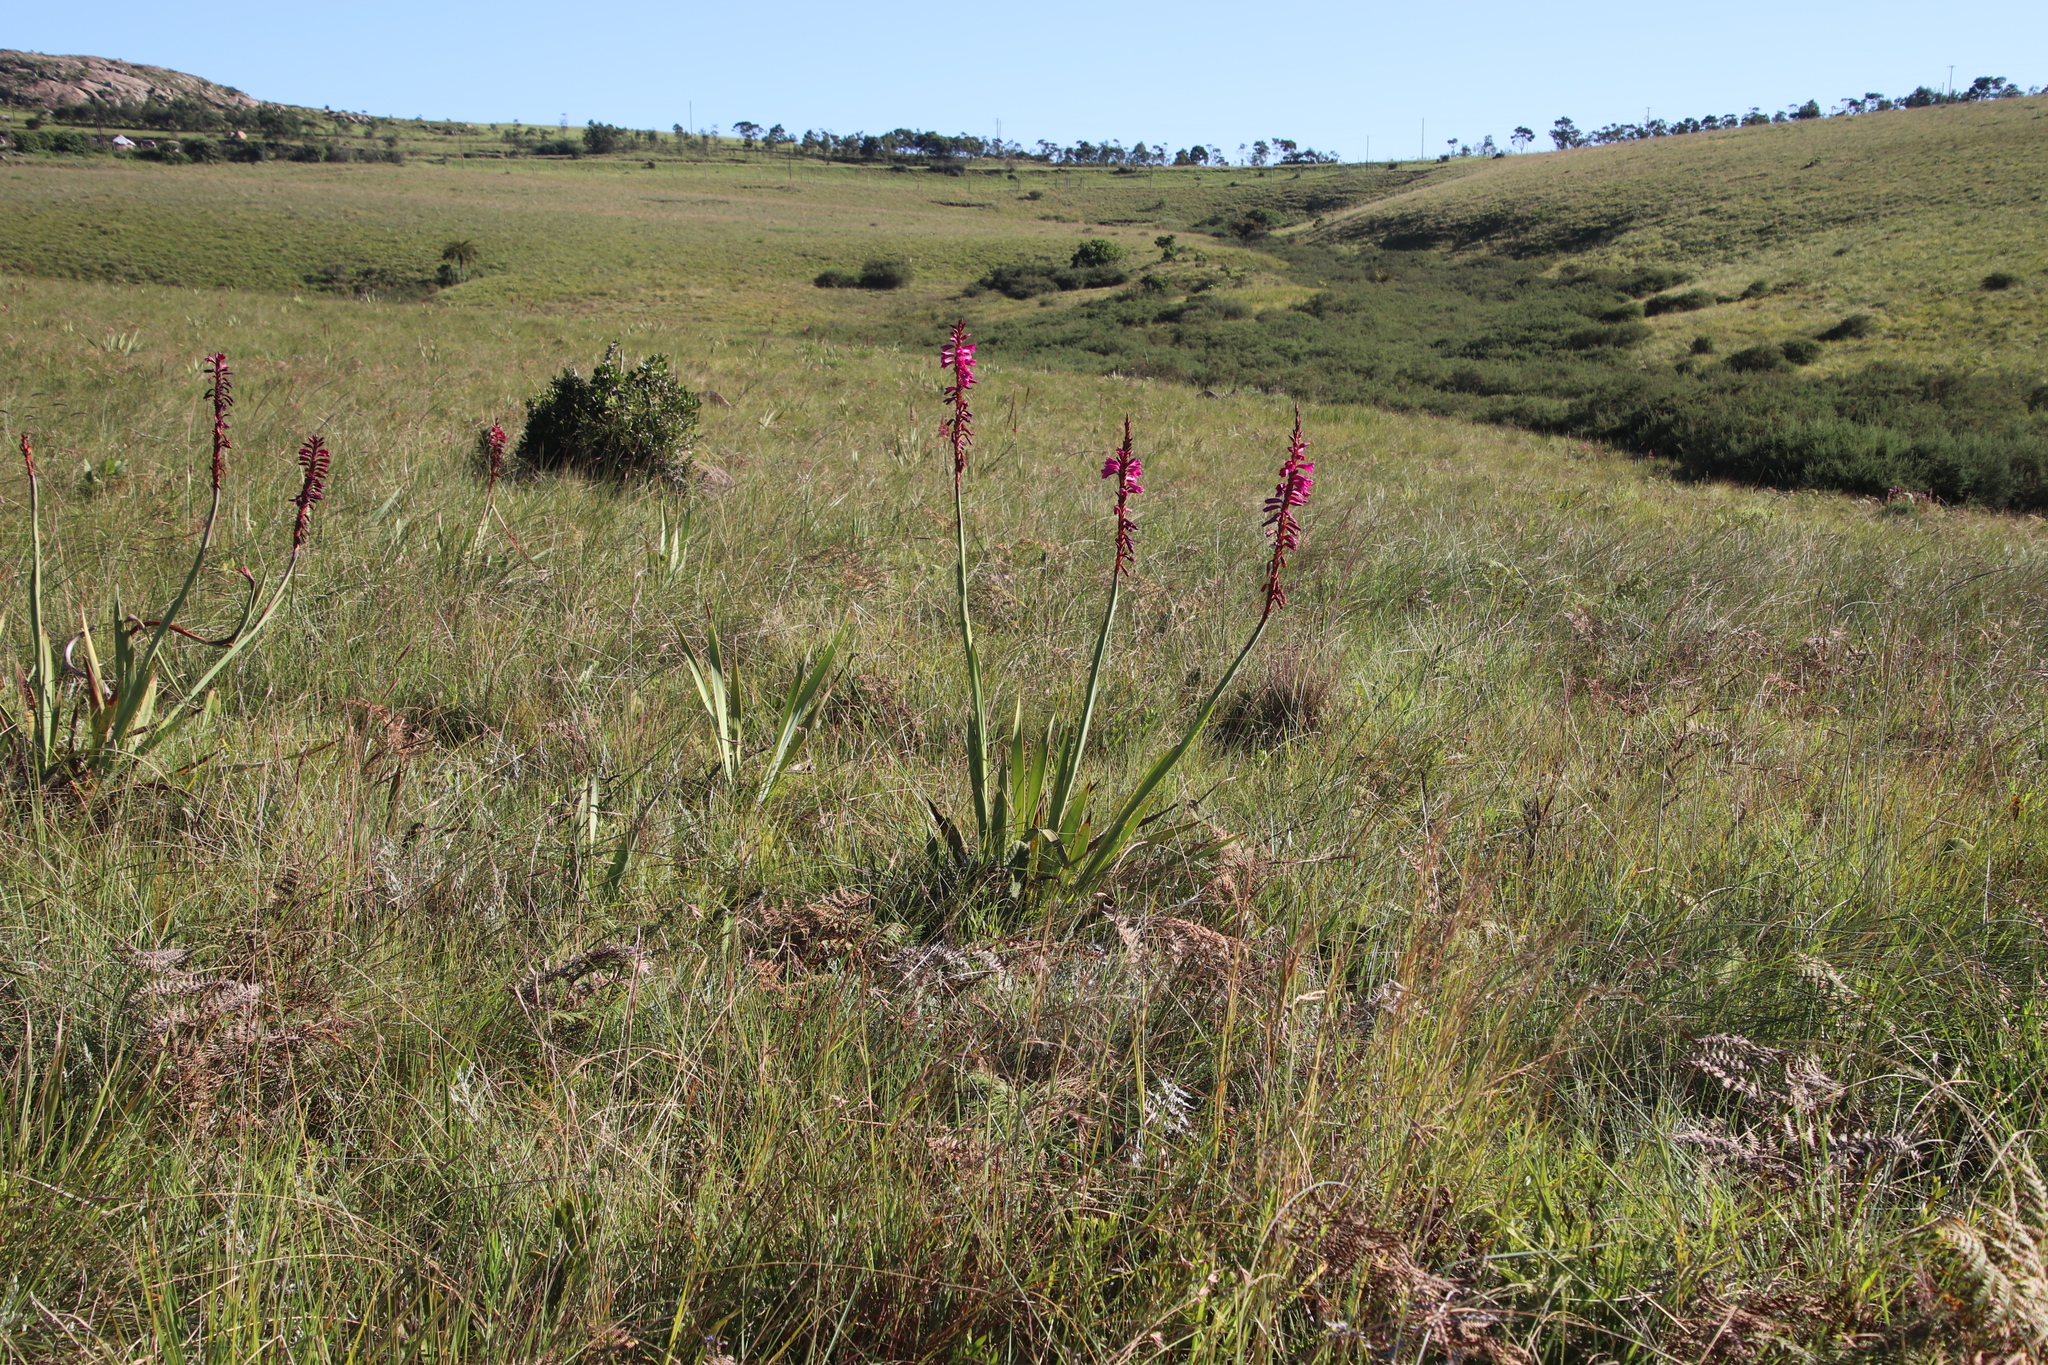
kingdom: Plantae
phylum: Tracheophyta
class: Liliopsida
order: Asparagales
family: Iridaceae
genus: Watsonia
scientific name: Watsonia pulchra
